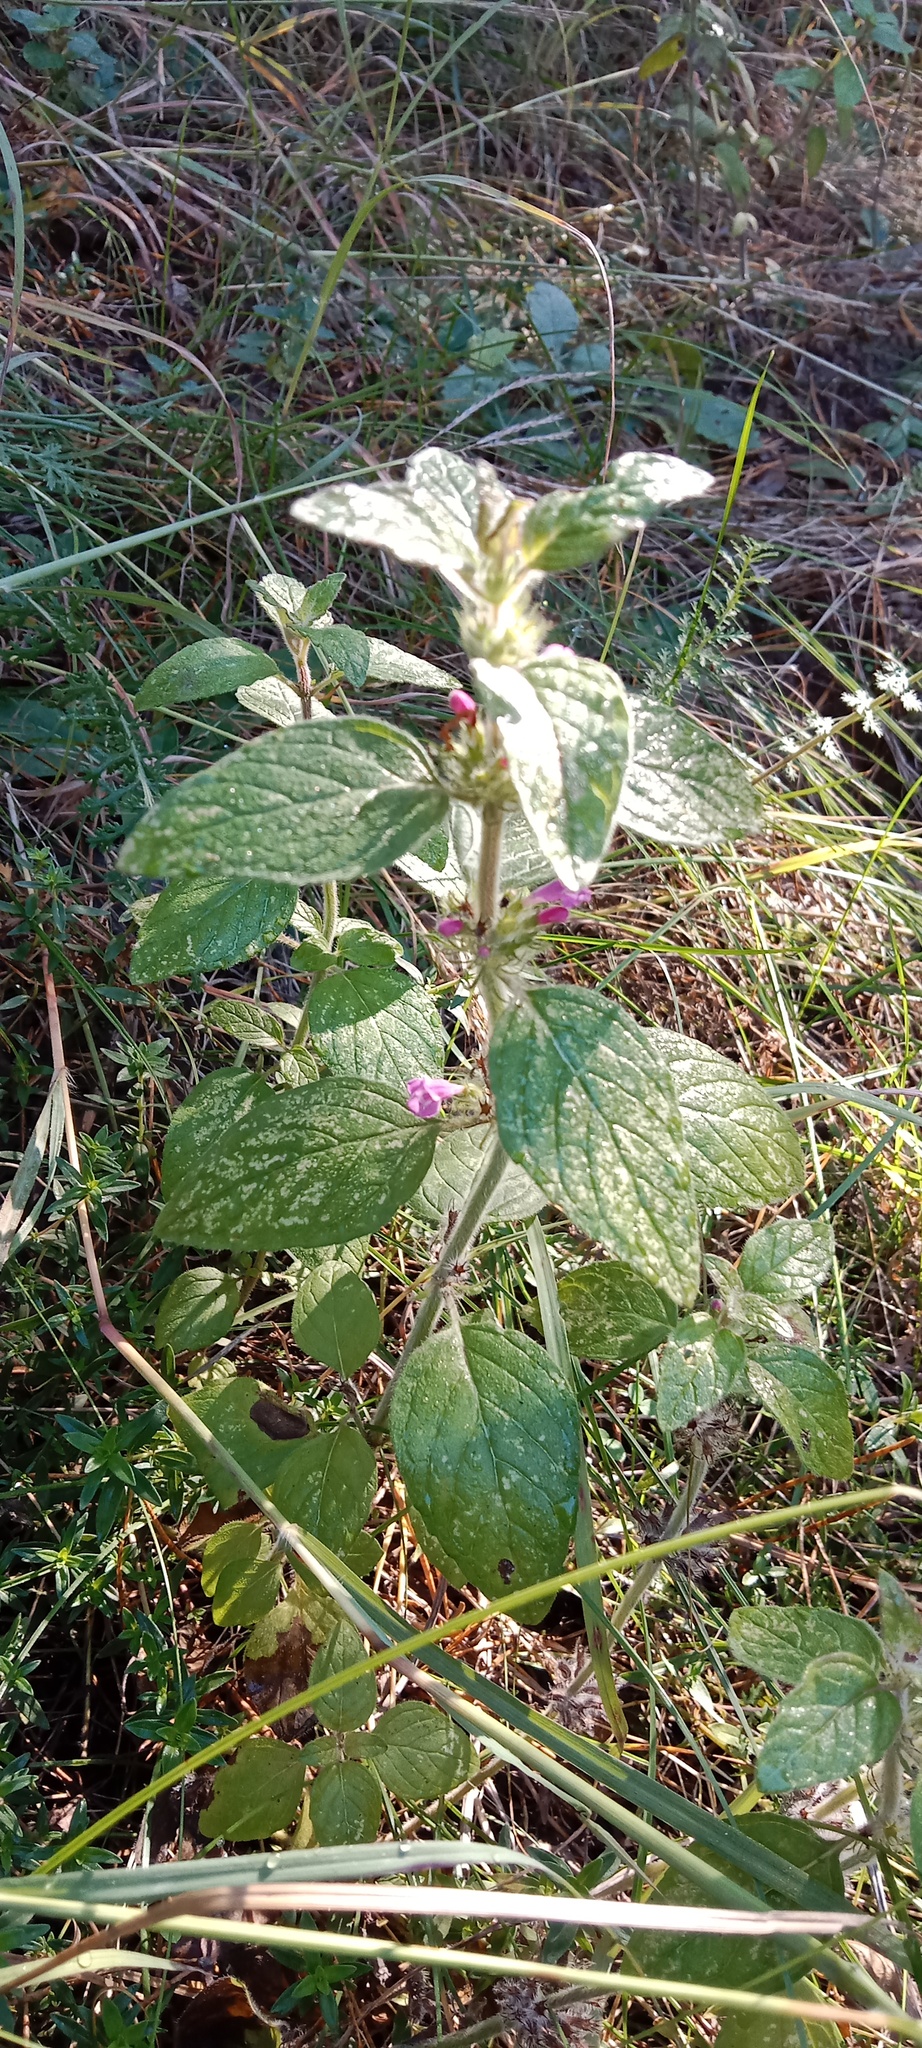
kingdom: Plantae
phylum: Tracheophyta
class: Magnoliopsida
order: Lamiales
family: Lamiaceae
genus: Clinopodium
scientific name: Clinopodium vulgare
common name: Wild basil
